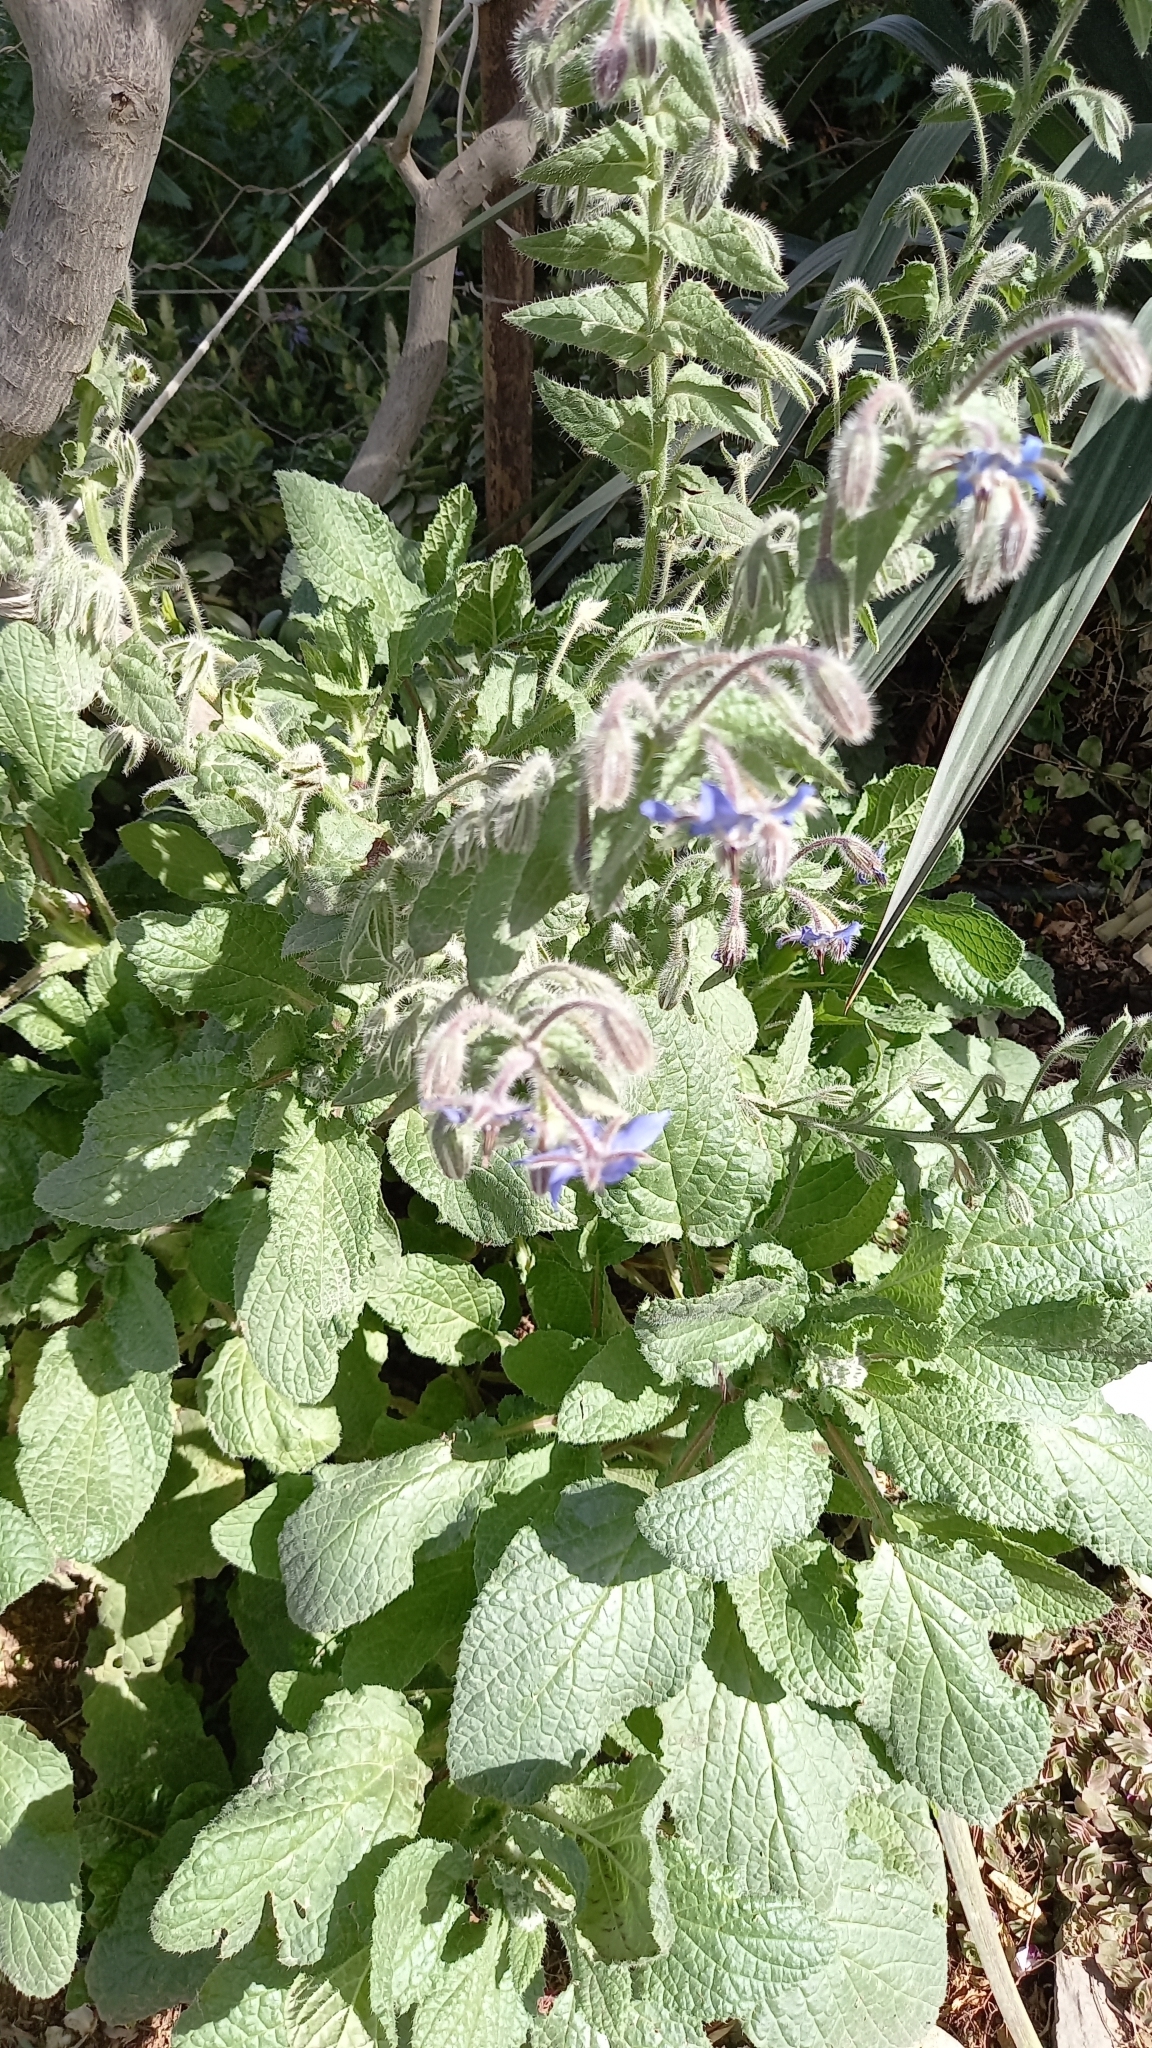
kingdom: Plantae
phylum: Tracheophyta
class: Magnoliopsida
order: Boraginales
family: Boraginaceae
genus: Borago
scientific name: Borago officinalis
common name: Borage
